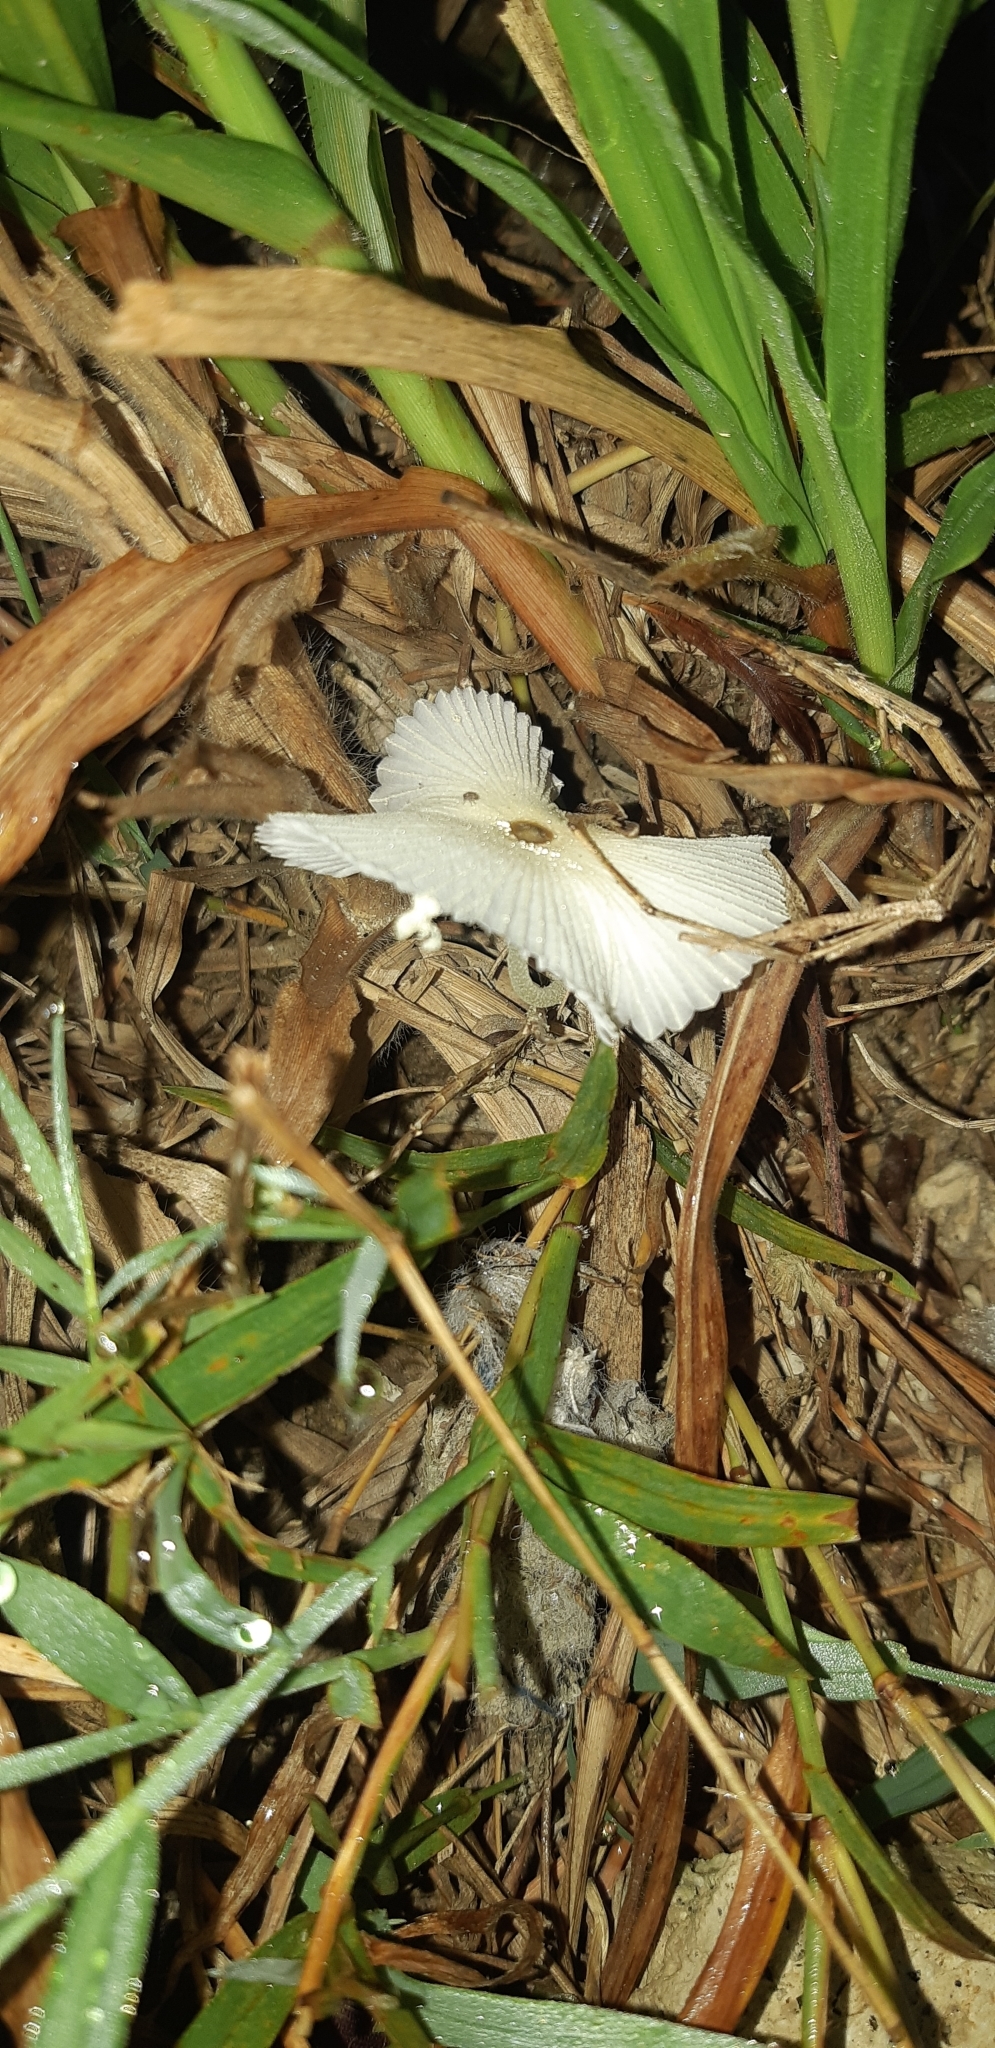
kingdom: Fungi
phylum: Basidiomycota
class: Agaricomycetes
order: Agaricales
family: Agaricaceae
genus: Leucocoprinus
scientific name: Leucocoprinus fragilissimus
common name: Fragile dapperling
